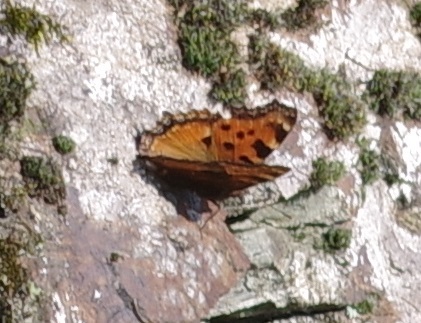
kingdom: Animalia
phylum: Arthropoda
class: Insecta
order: Lepidoptera
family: Nymphalidae
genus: Nymphalis
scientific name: Nymphalis polychloros
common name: Large tortoiseshell
